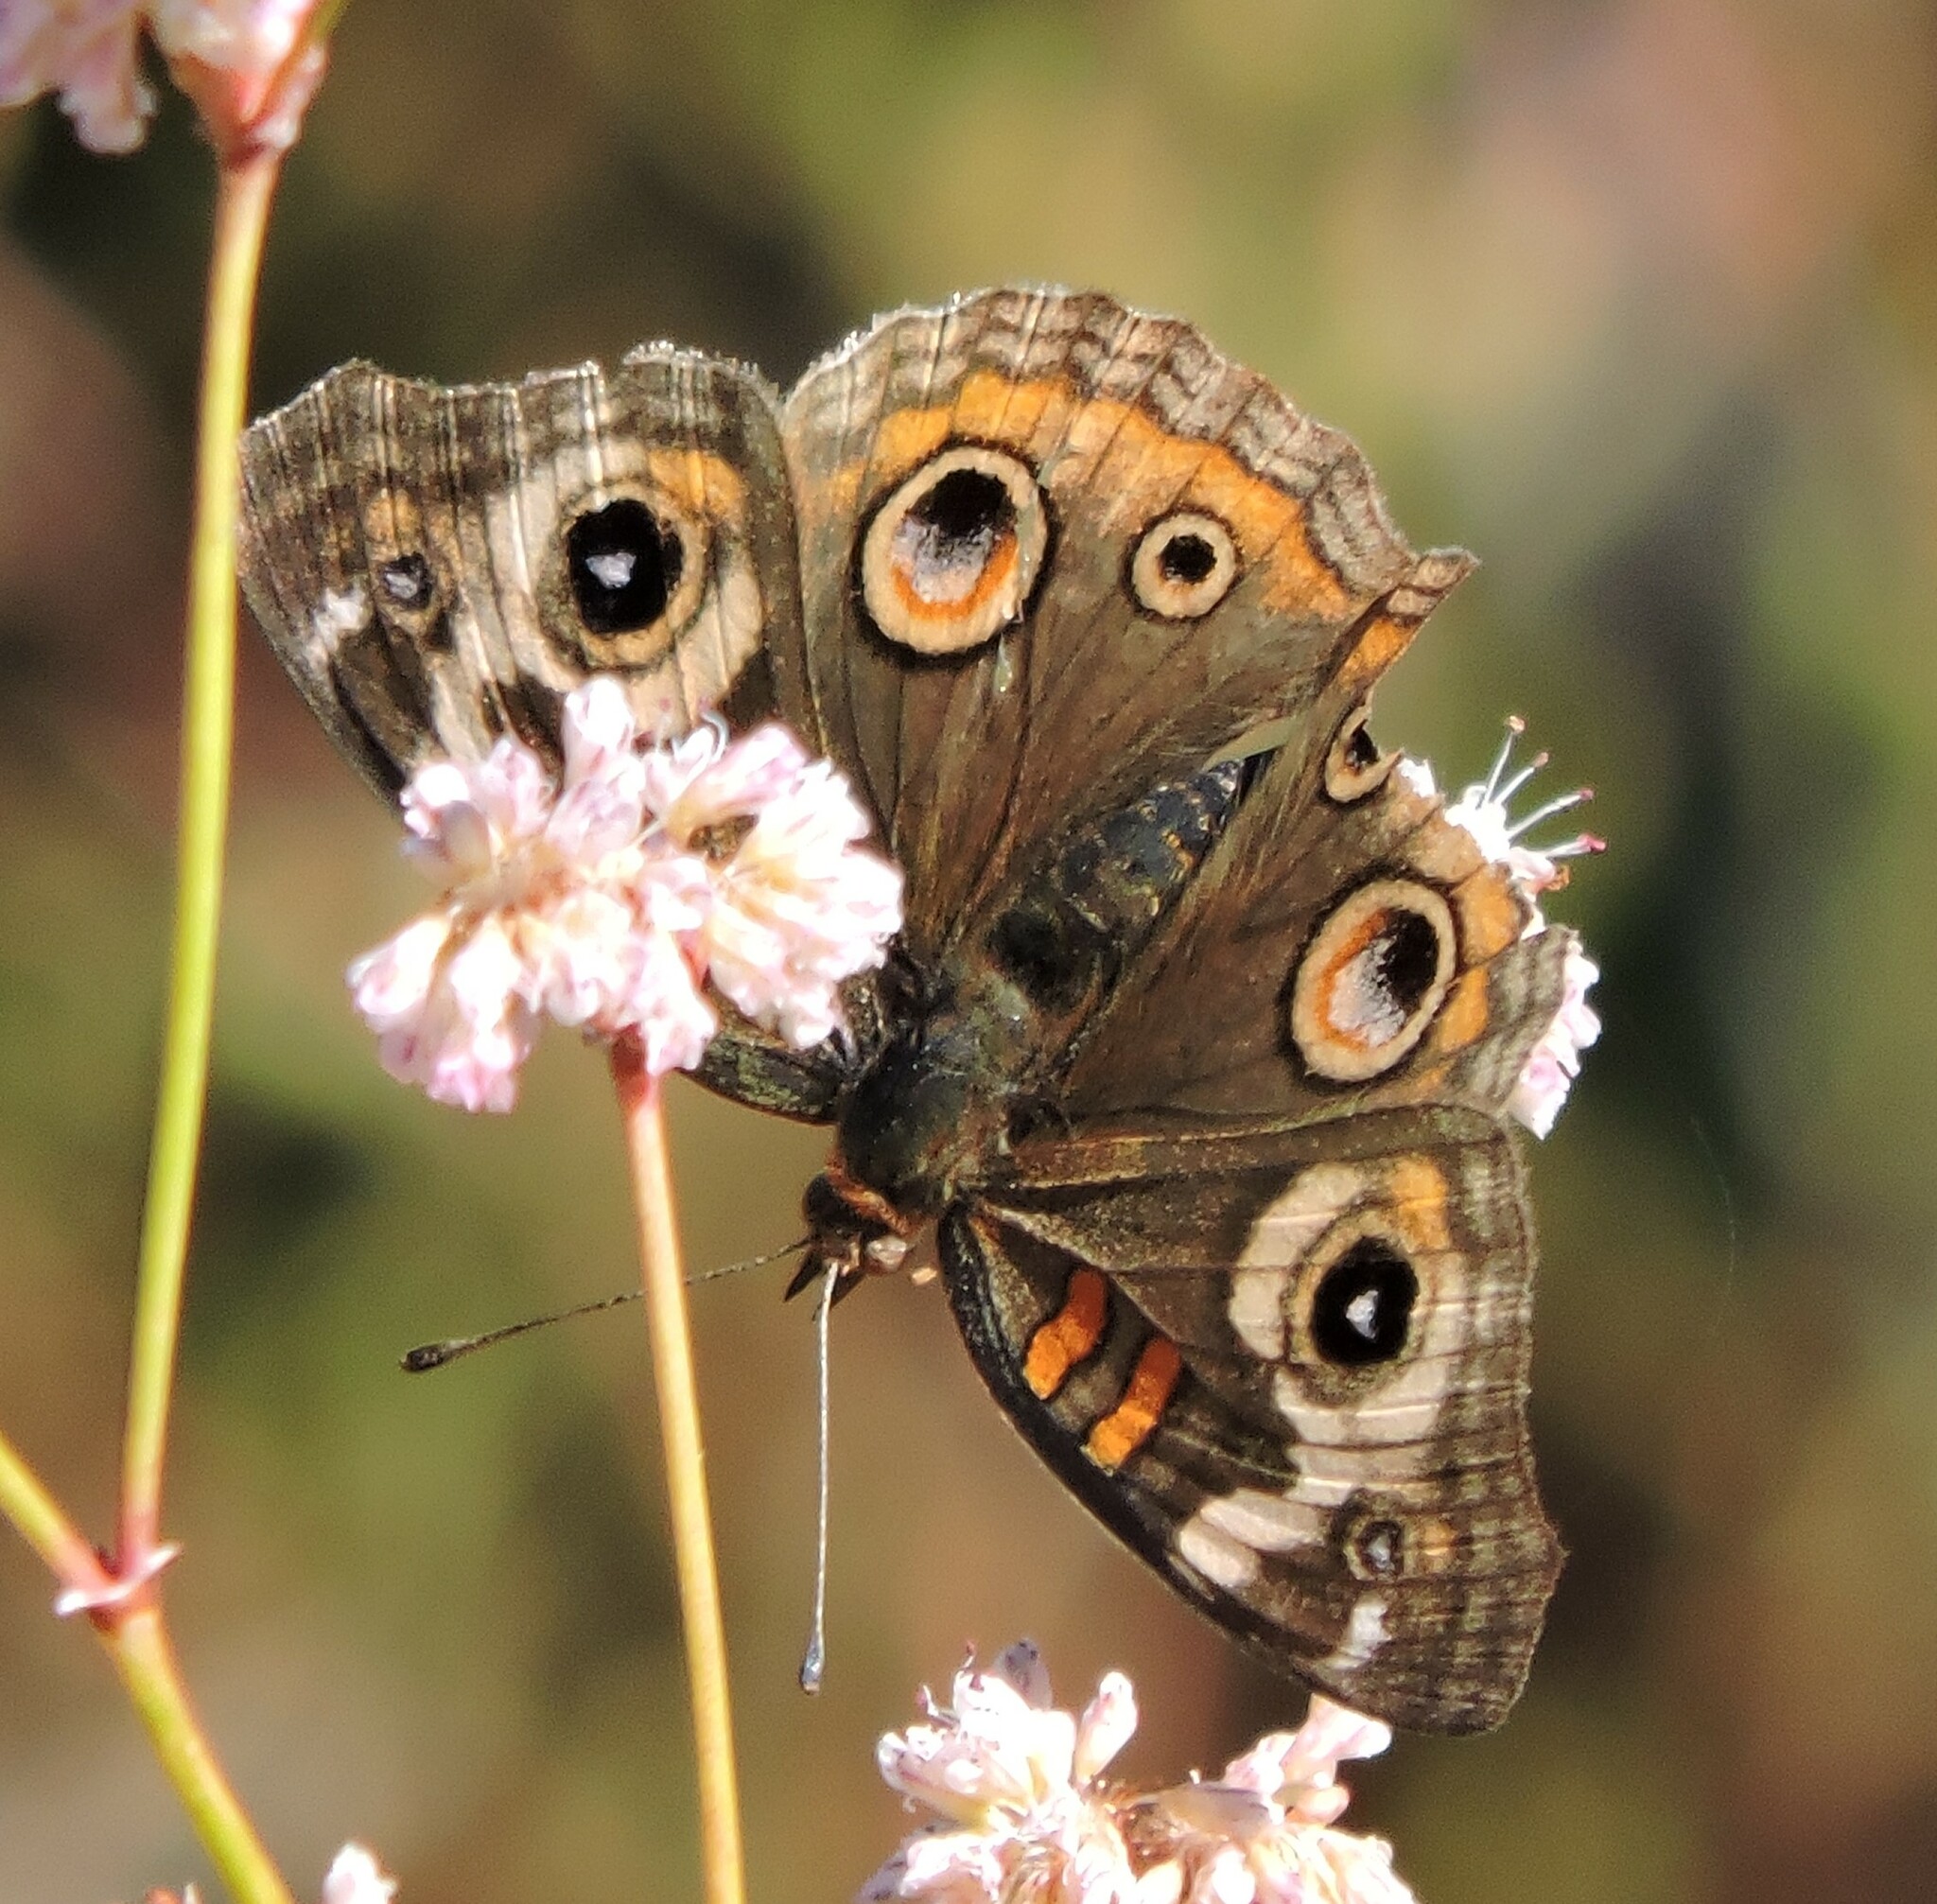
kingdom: Animalia
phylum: Arthropoda
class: Insecta
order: Lepidoptera
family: Nymphalidae
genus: Junonia
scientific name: Junonia grisea
